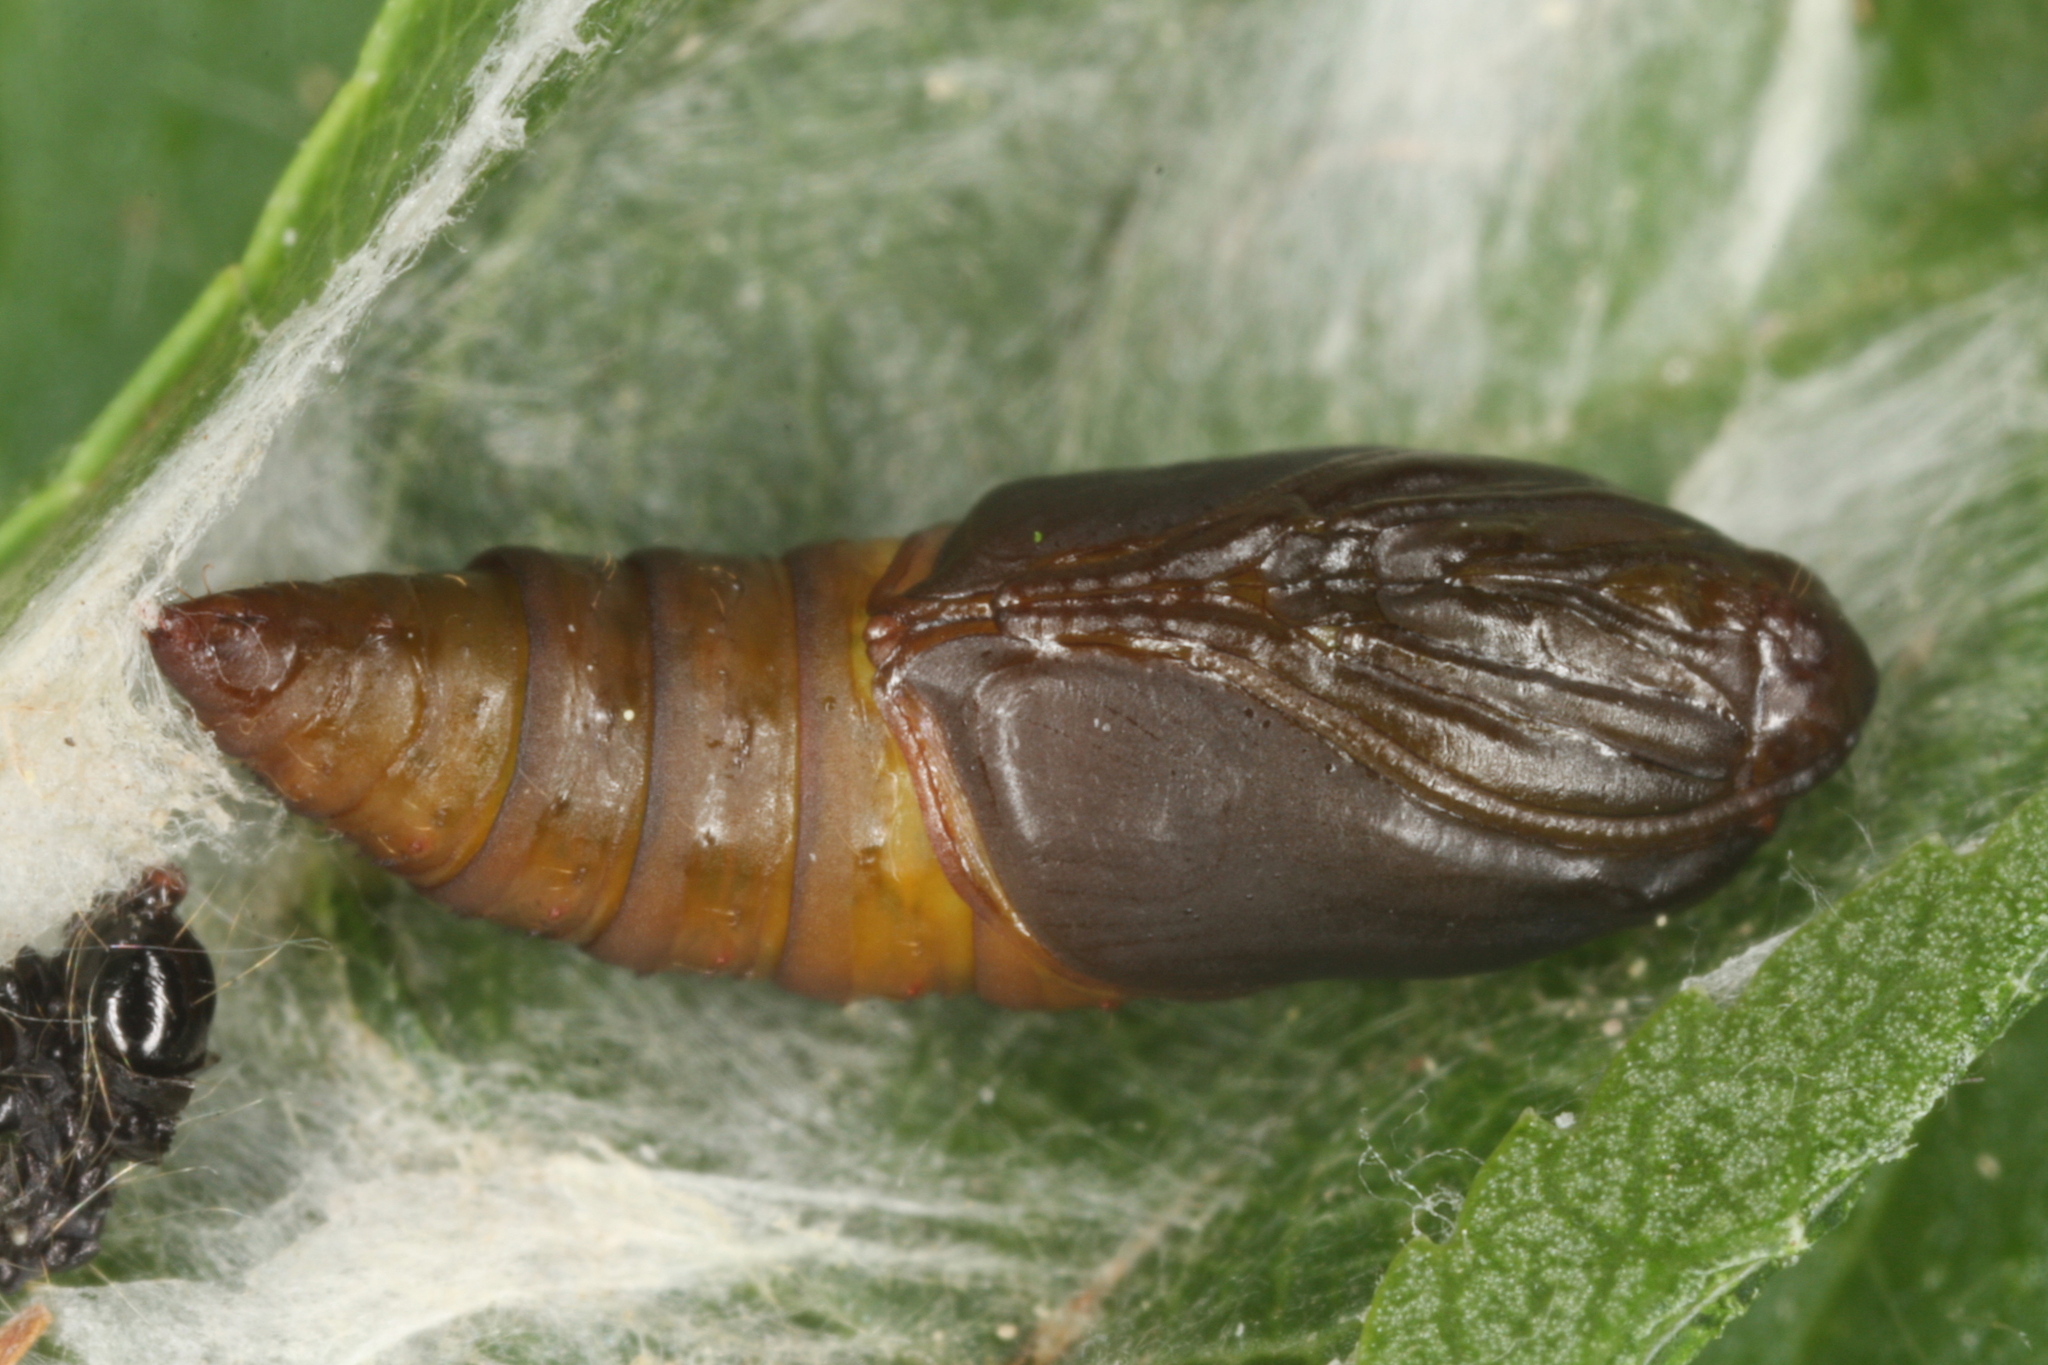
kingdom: Animalia
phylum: Arthropoda
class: Insecta
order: Lepidoptera
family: Tortricidae
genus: Hedya
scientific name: Hedya pruniana
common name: Plum tortrix
